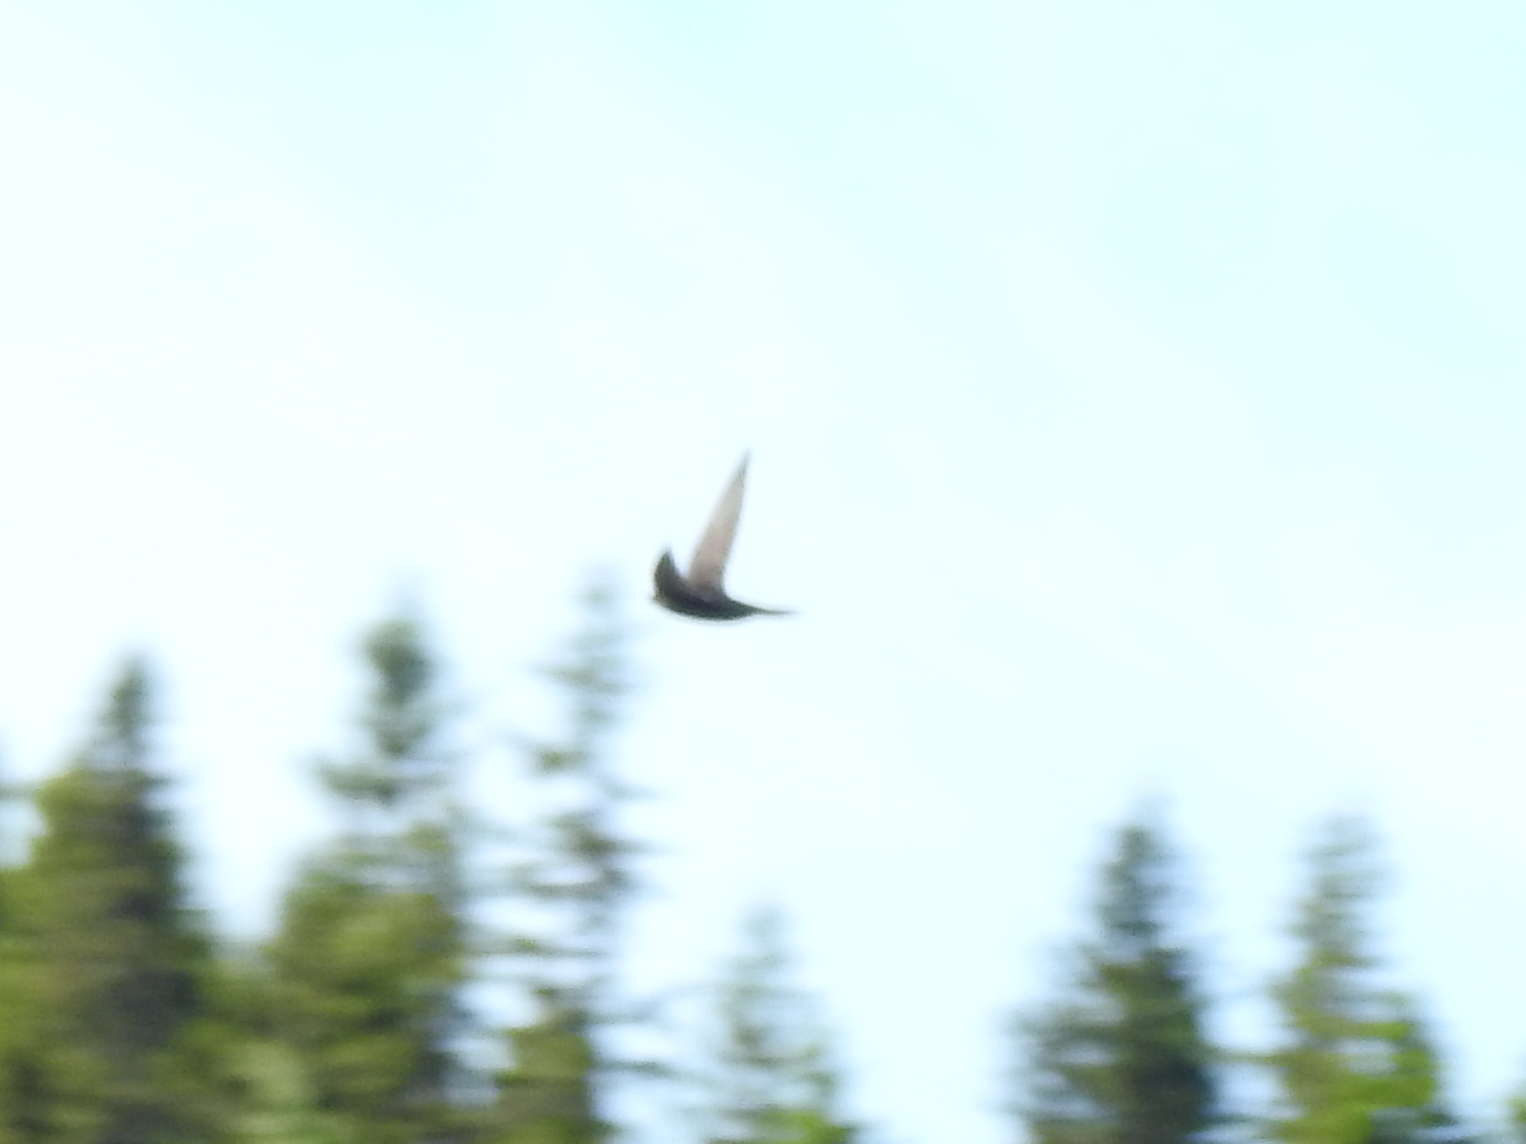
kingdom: Animalia
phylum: Chordata
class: Aves
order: Apodiformes
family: Apodidae
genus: Apus
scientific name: Apus apus
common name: Common swift
